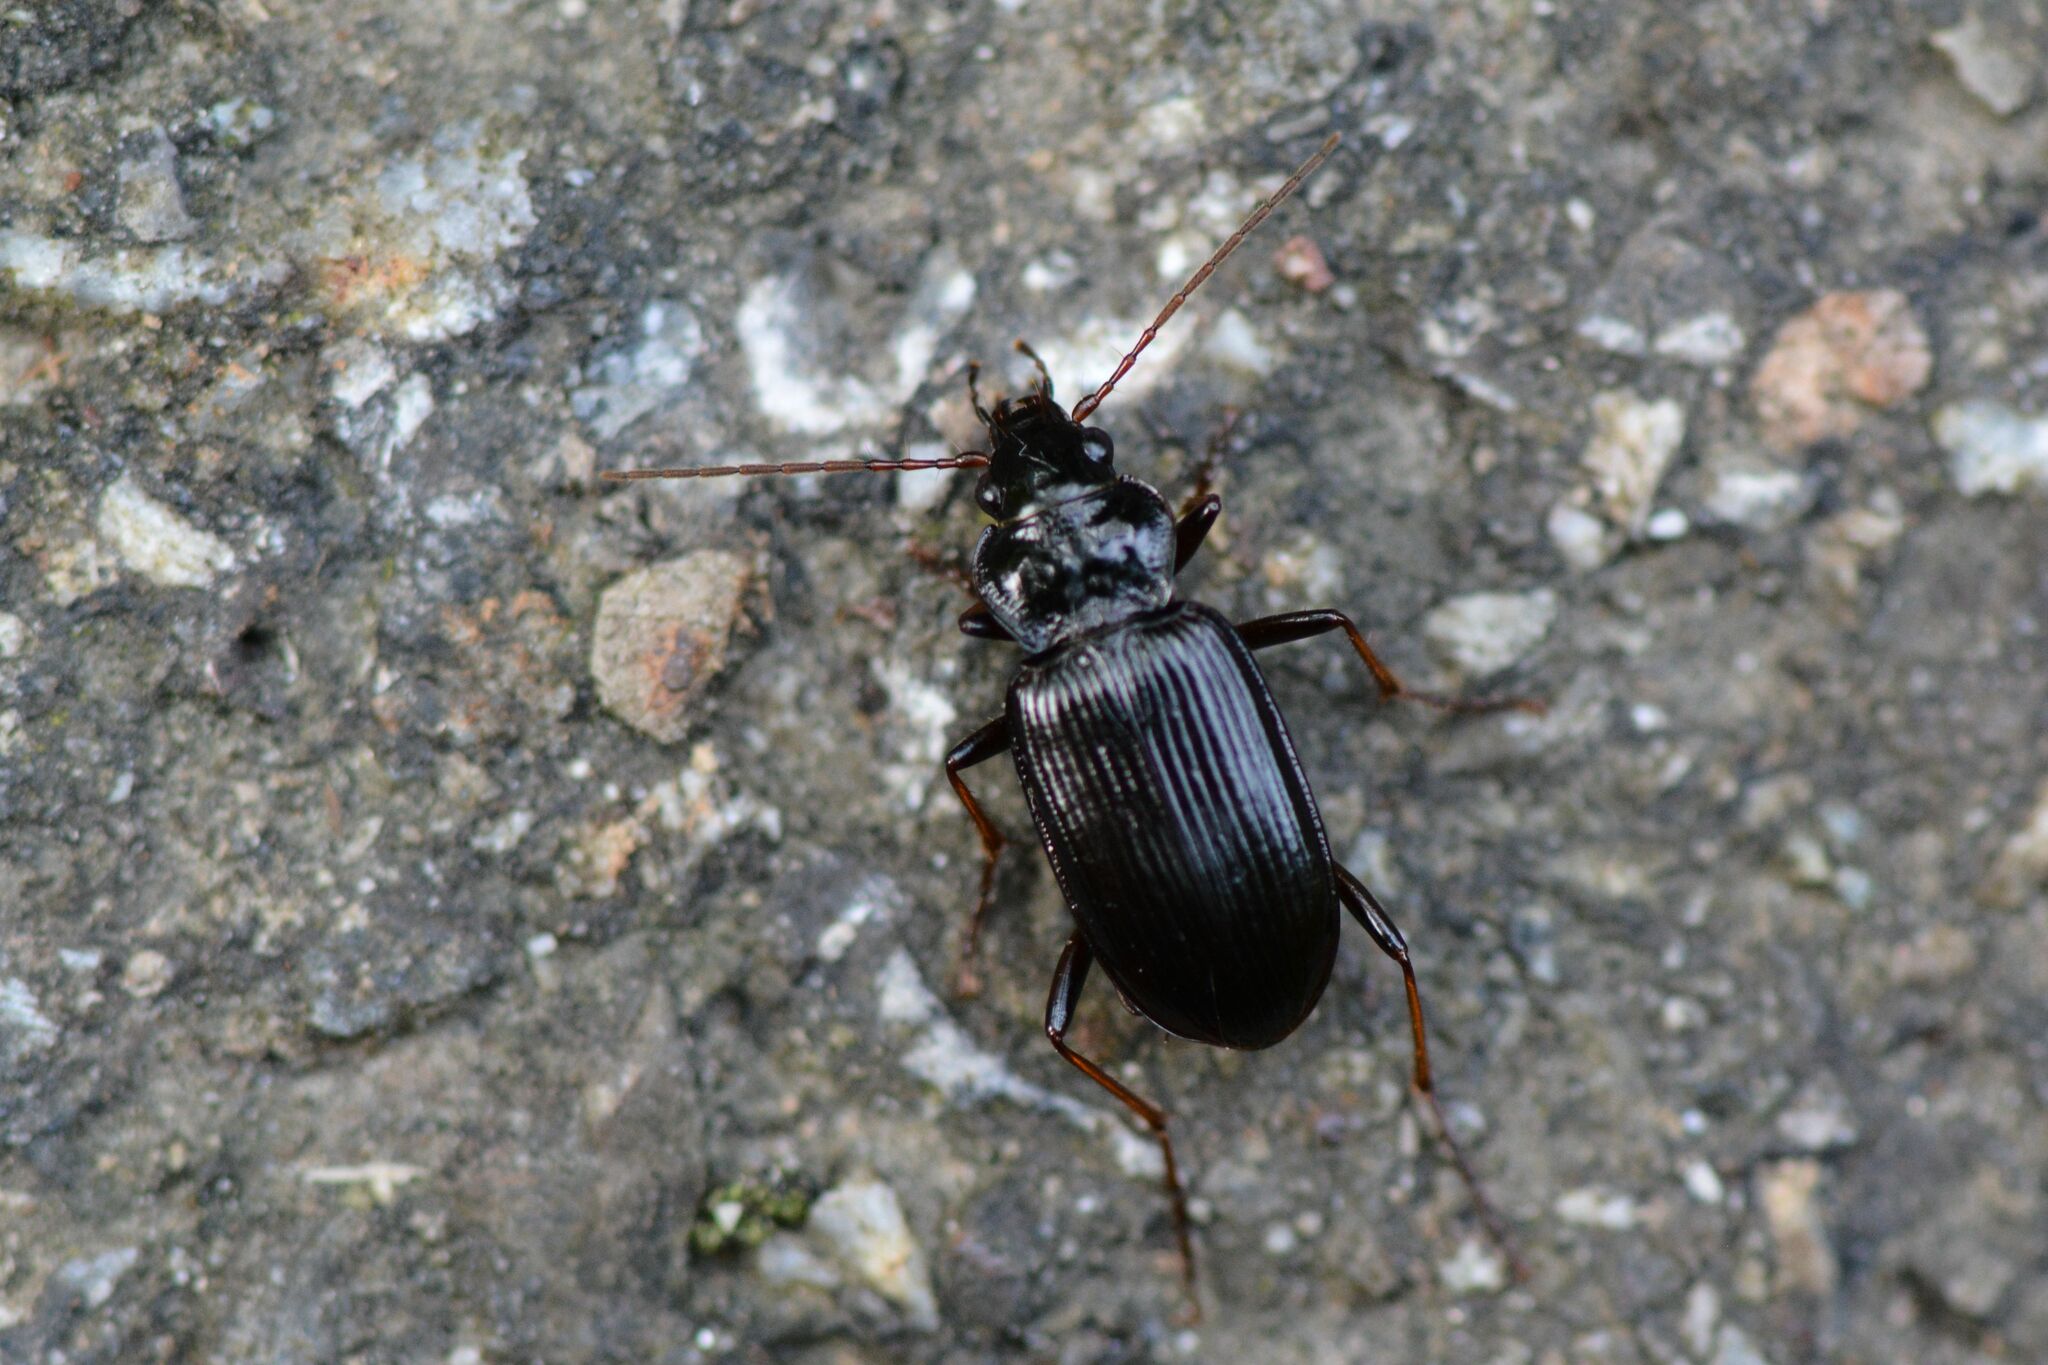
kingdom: Animalia
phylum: Arthropoda
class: Insecta
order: Coleoptera
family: Carabidae
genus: Nebria
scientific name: Nebria salina
